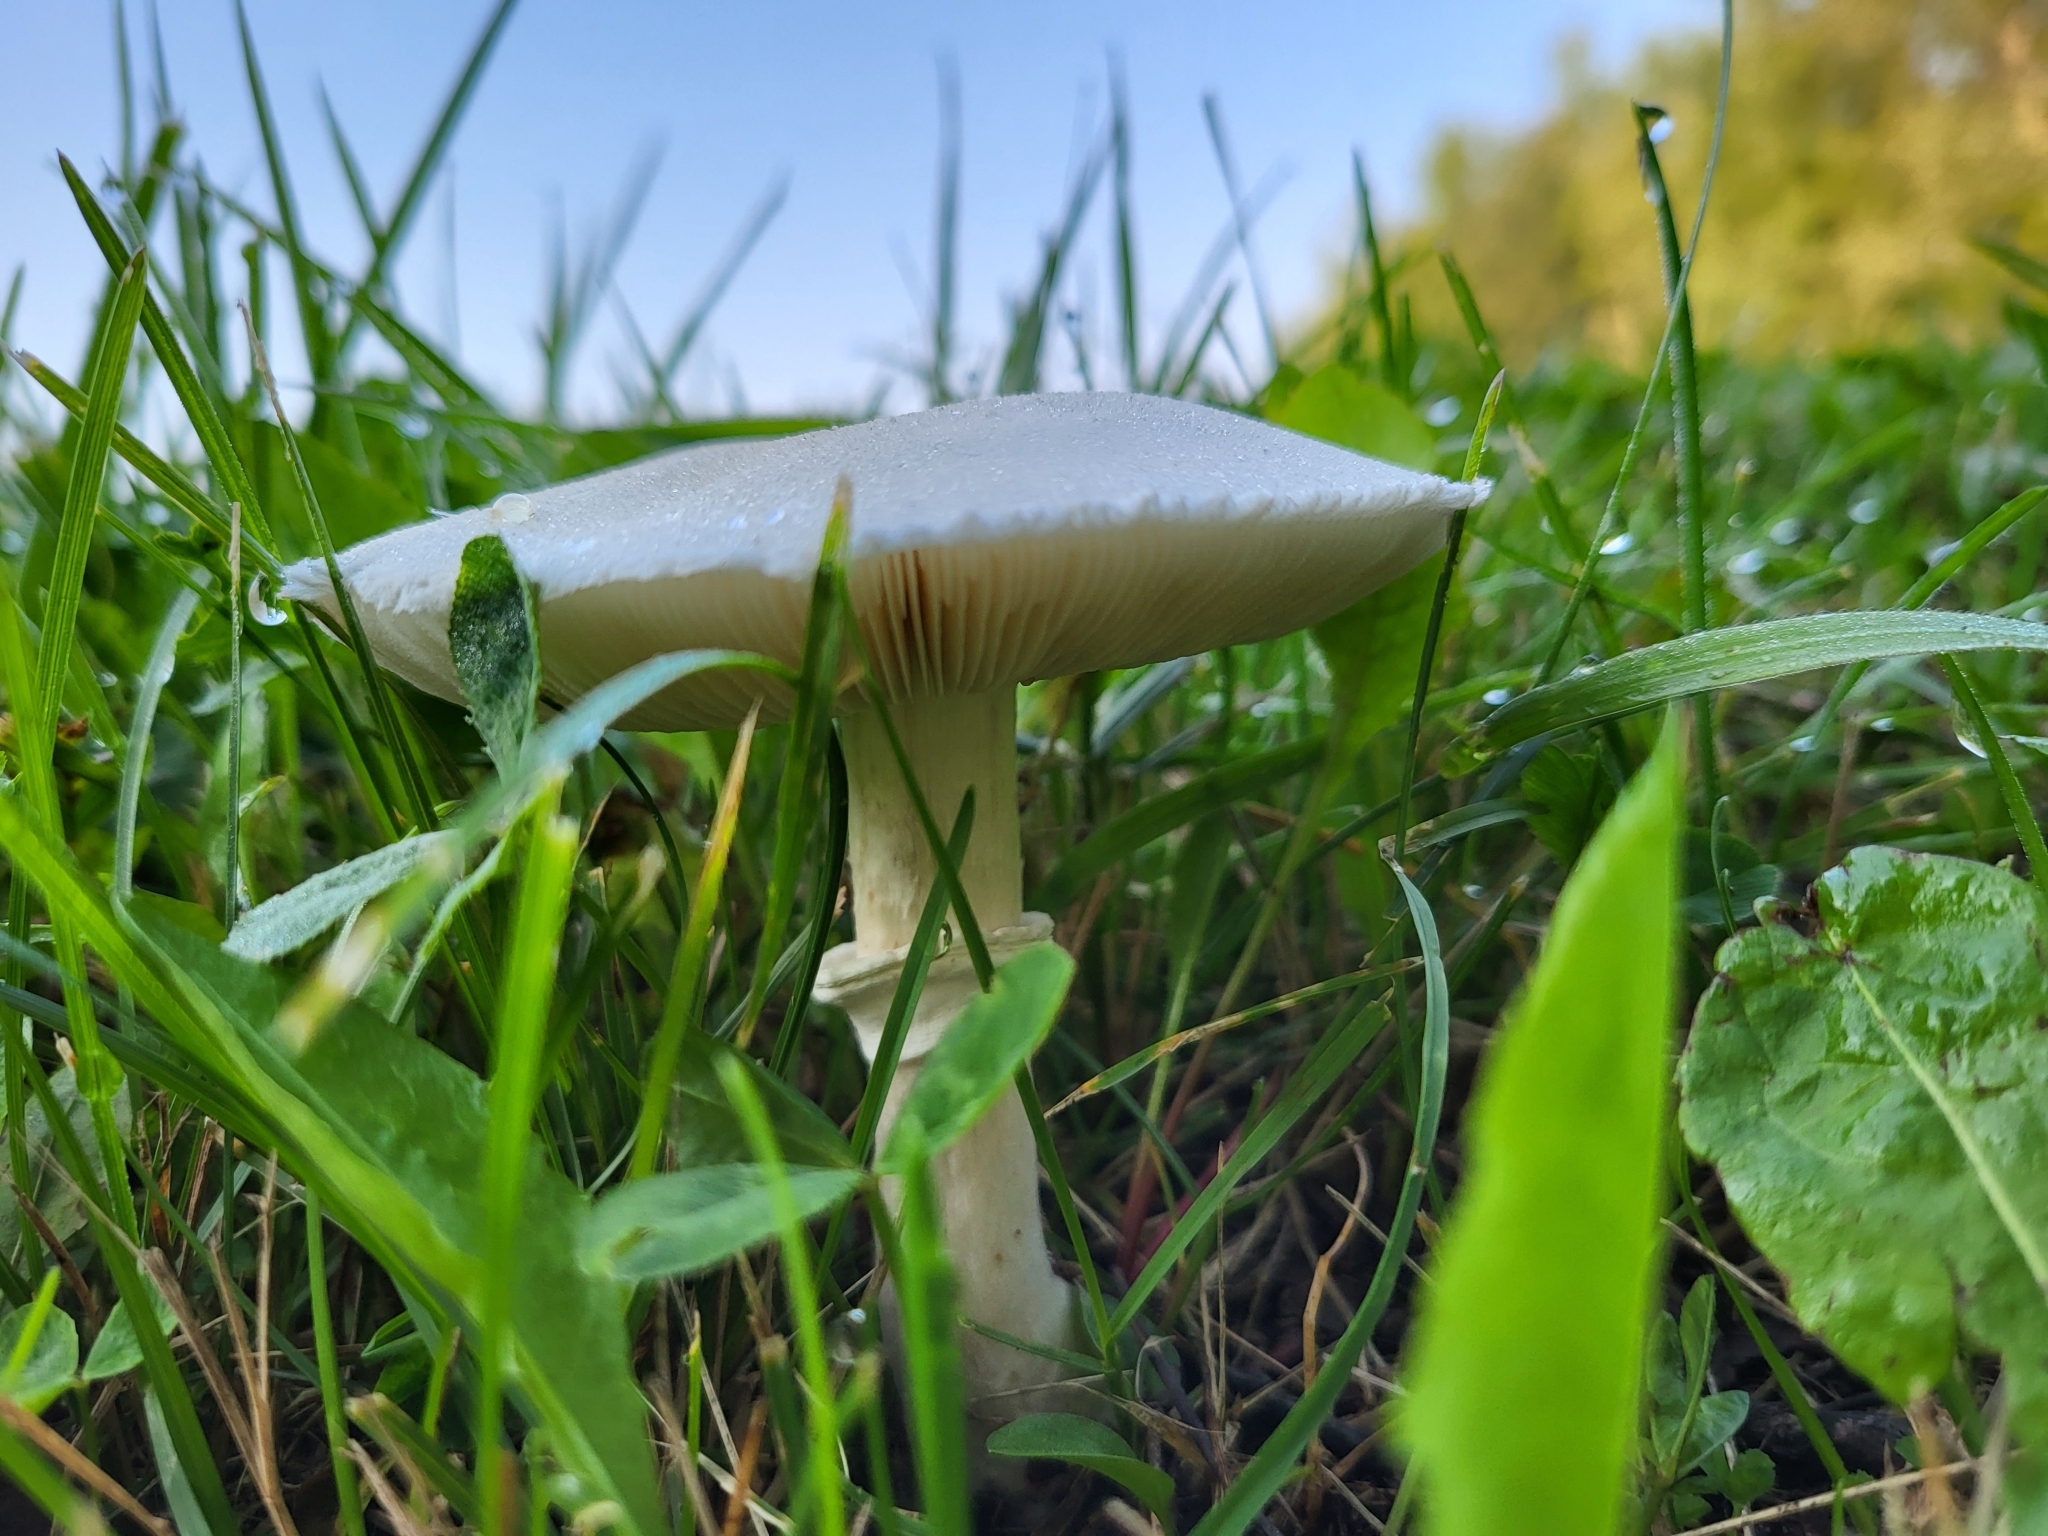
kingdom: Fungi
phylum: Basidiomycota
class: Agaricomycetes
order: Agaricales
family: Agaricaceae
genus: Leucoagaricus
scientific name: Leucoagaricus leucothites
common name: White dapperling
